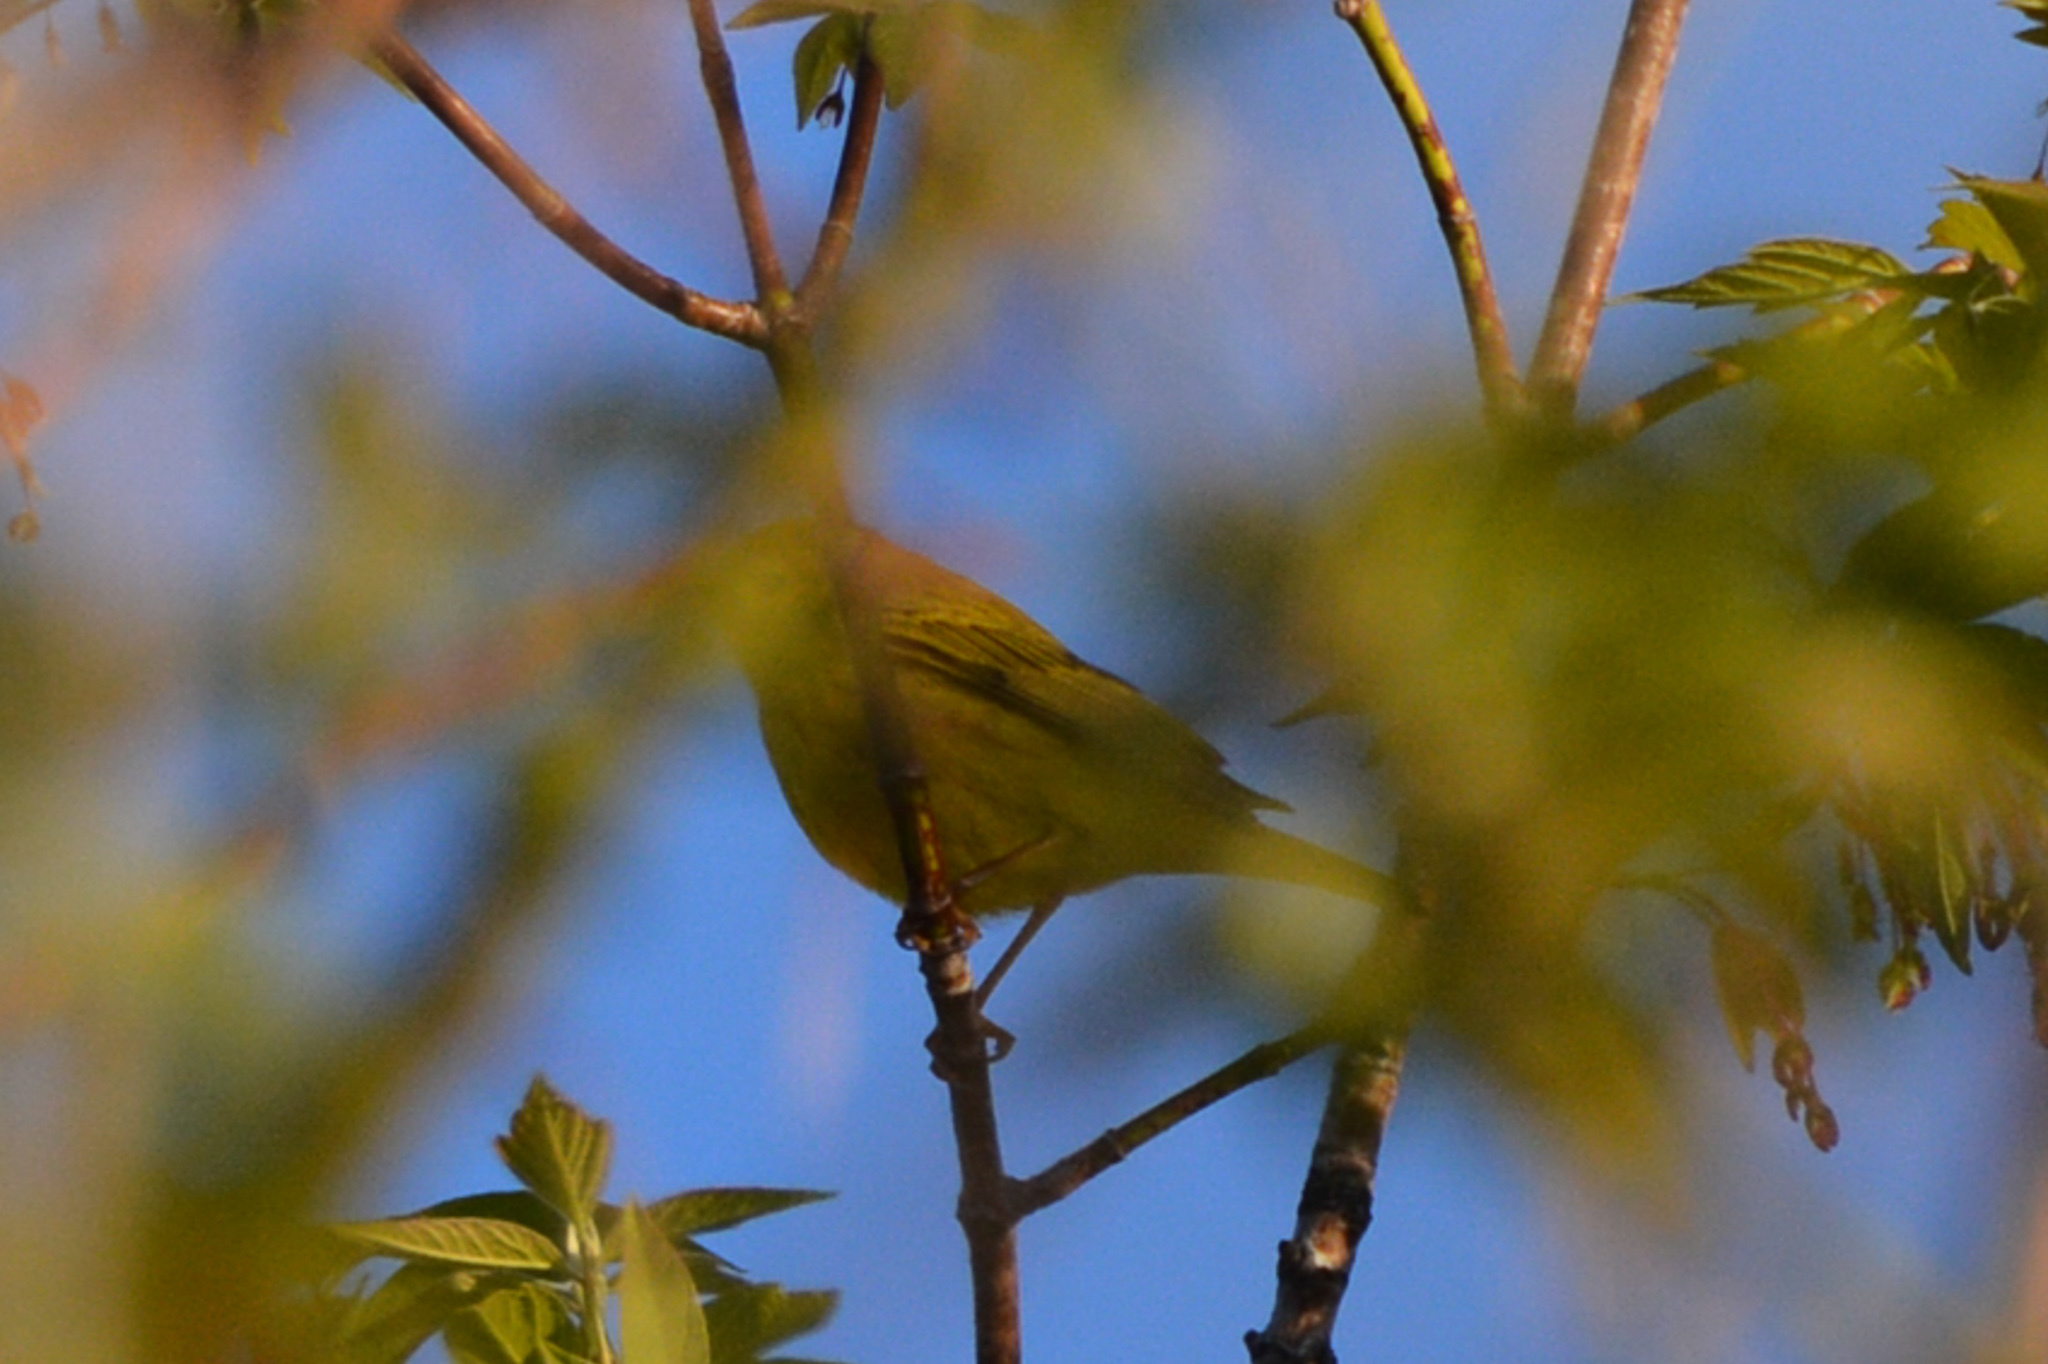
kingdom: Animalia
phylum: Chordata
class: Aves
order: Passeriformes
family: Parulidae
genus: Setophaga
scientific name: Setophaga petechia
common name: Yellow warbler
